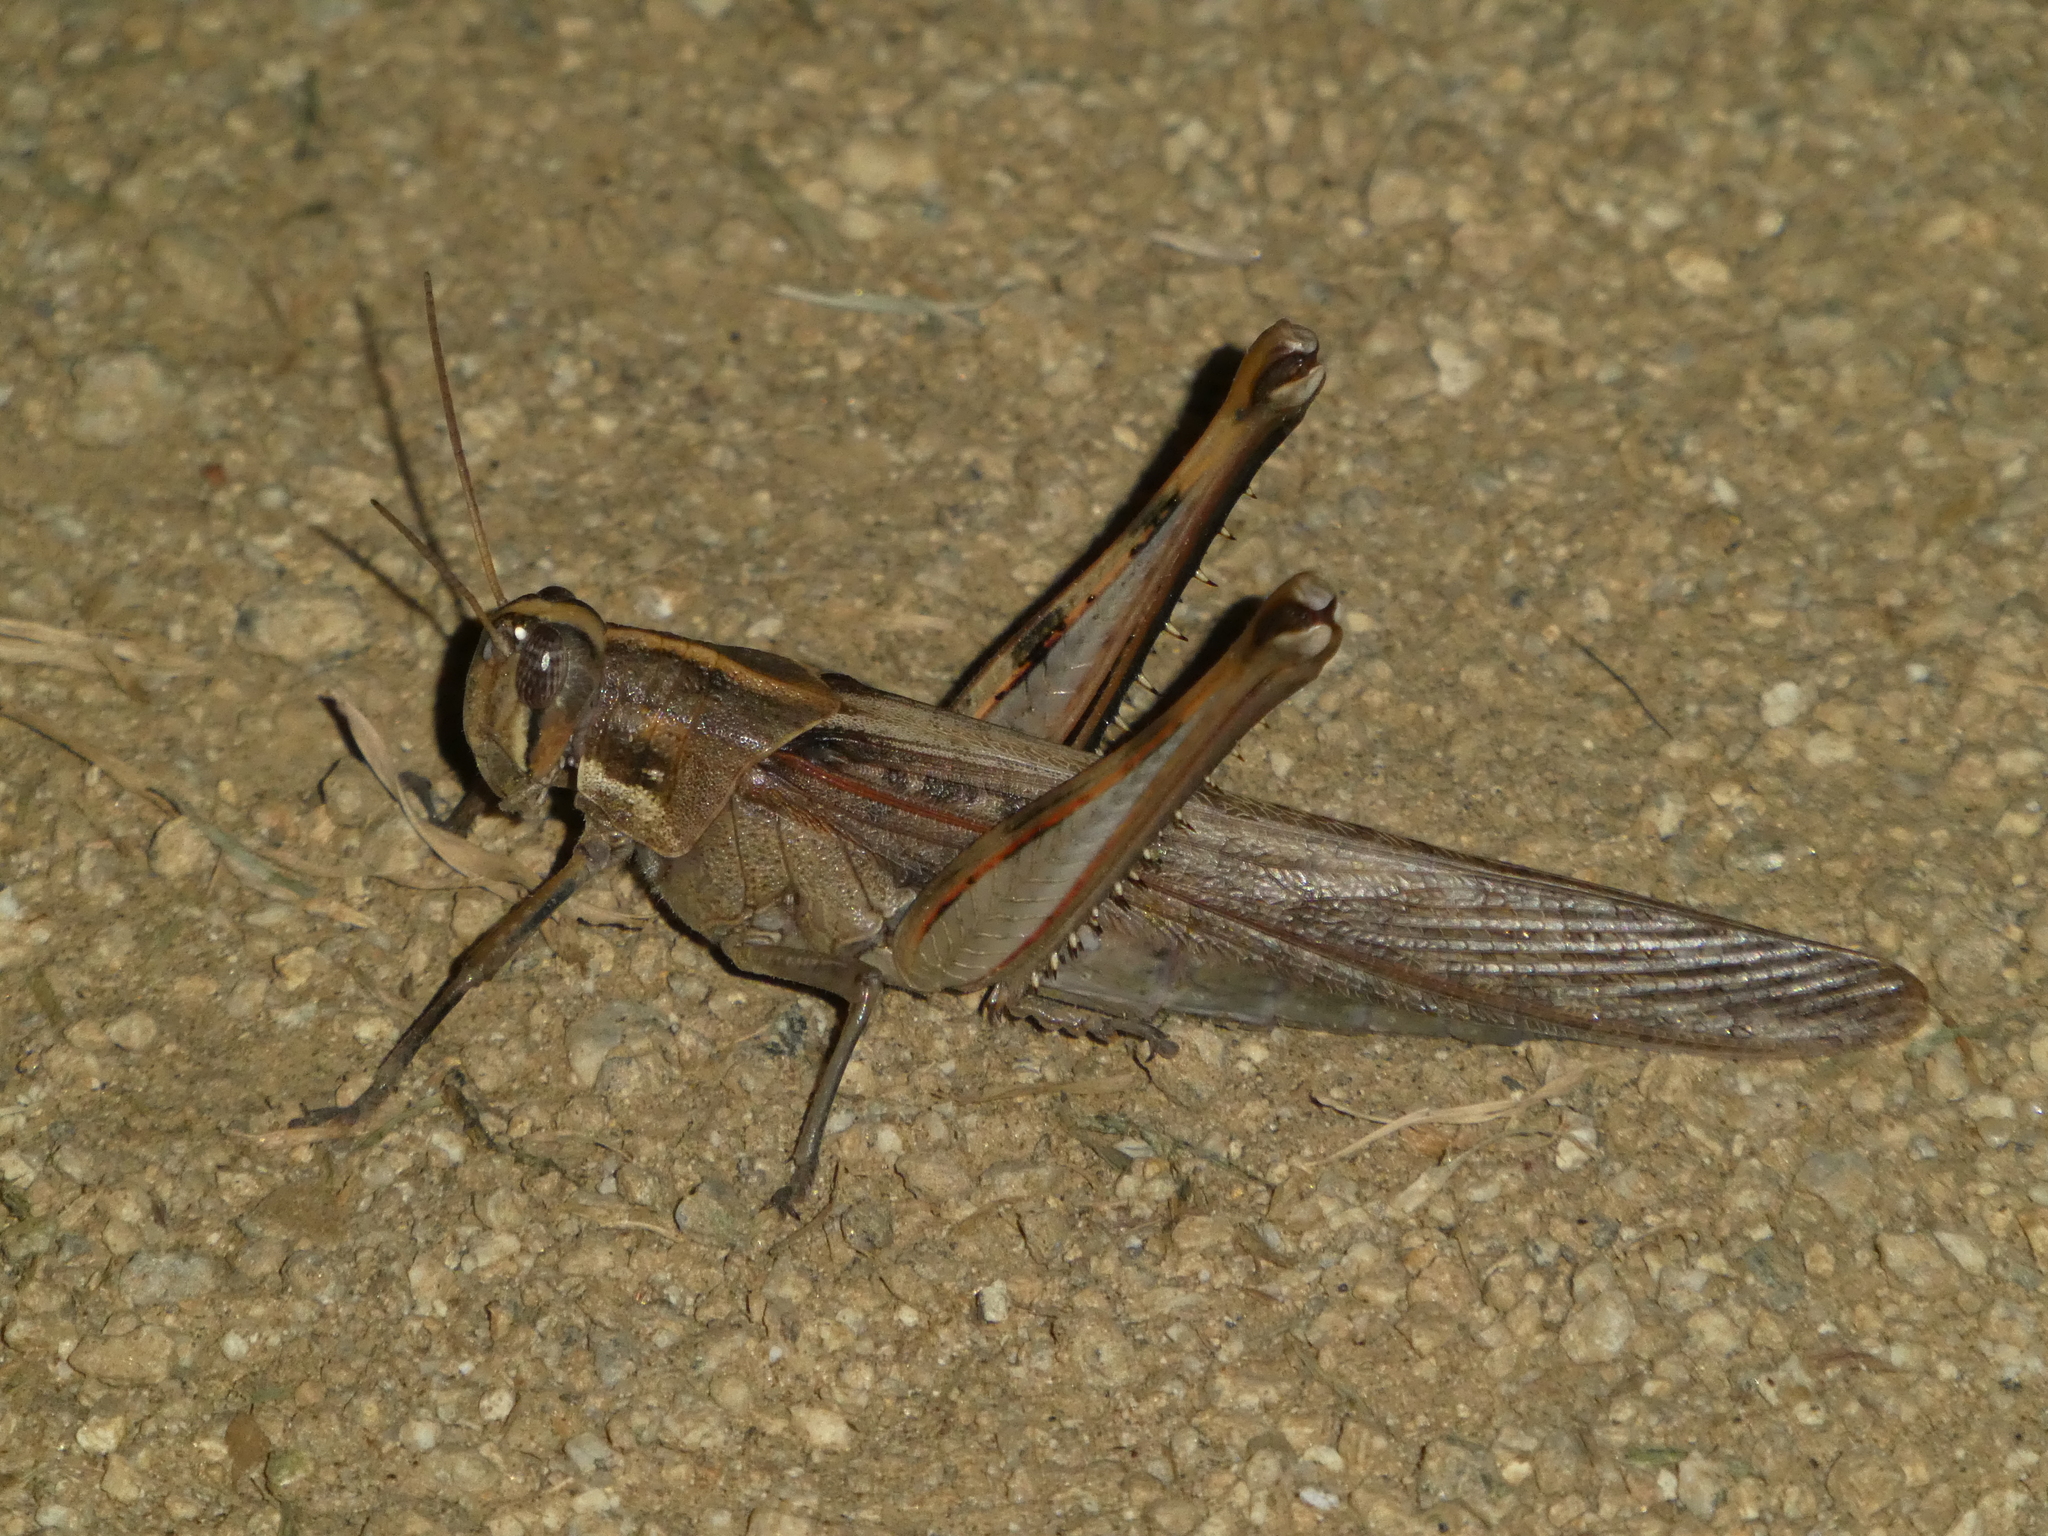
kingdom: Animalia
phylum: Arthropoda
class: Insecta
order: Orthoptera
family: Acrididae
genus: Schistocerca
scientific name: Schistocerca nitens
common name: Vagrant grasshopper
